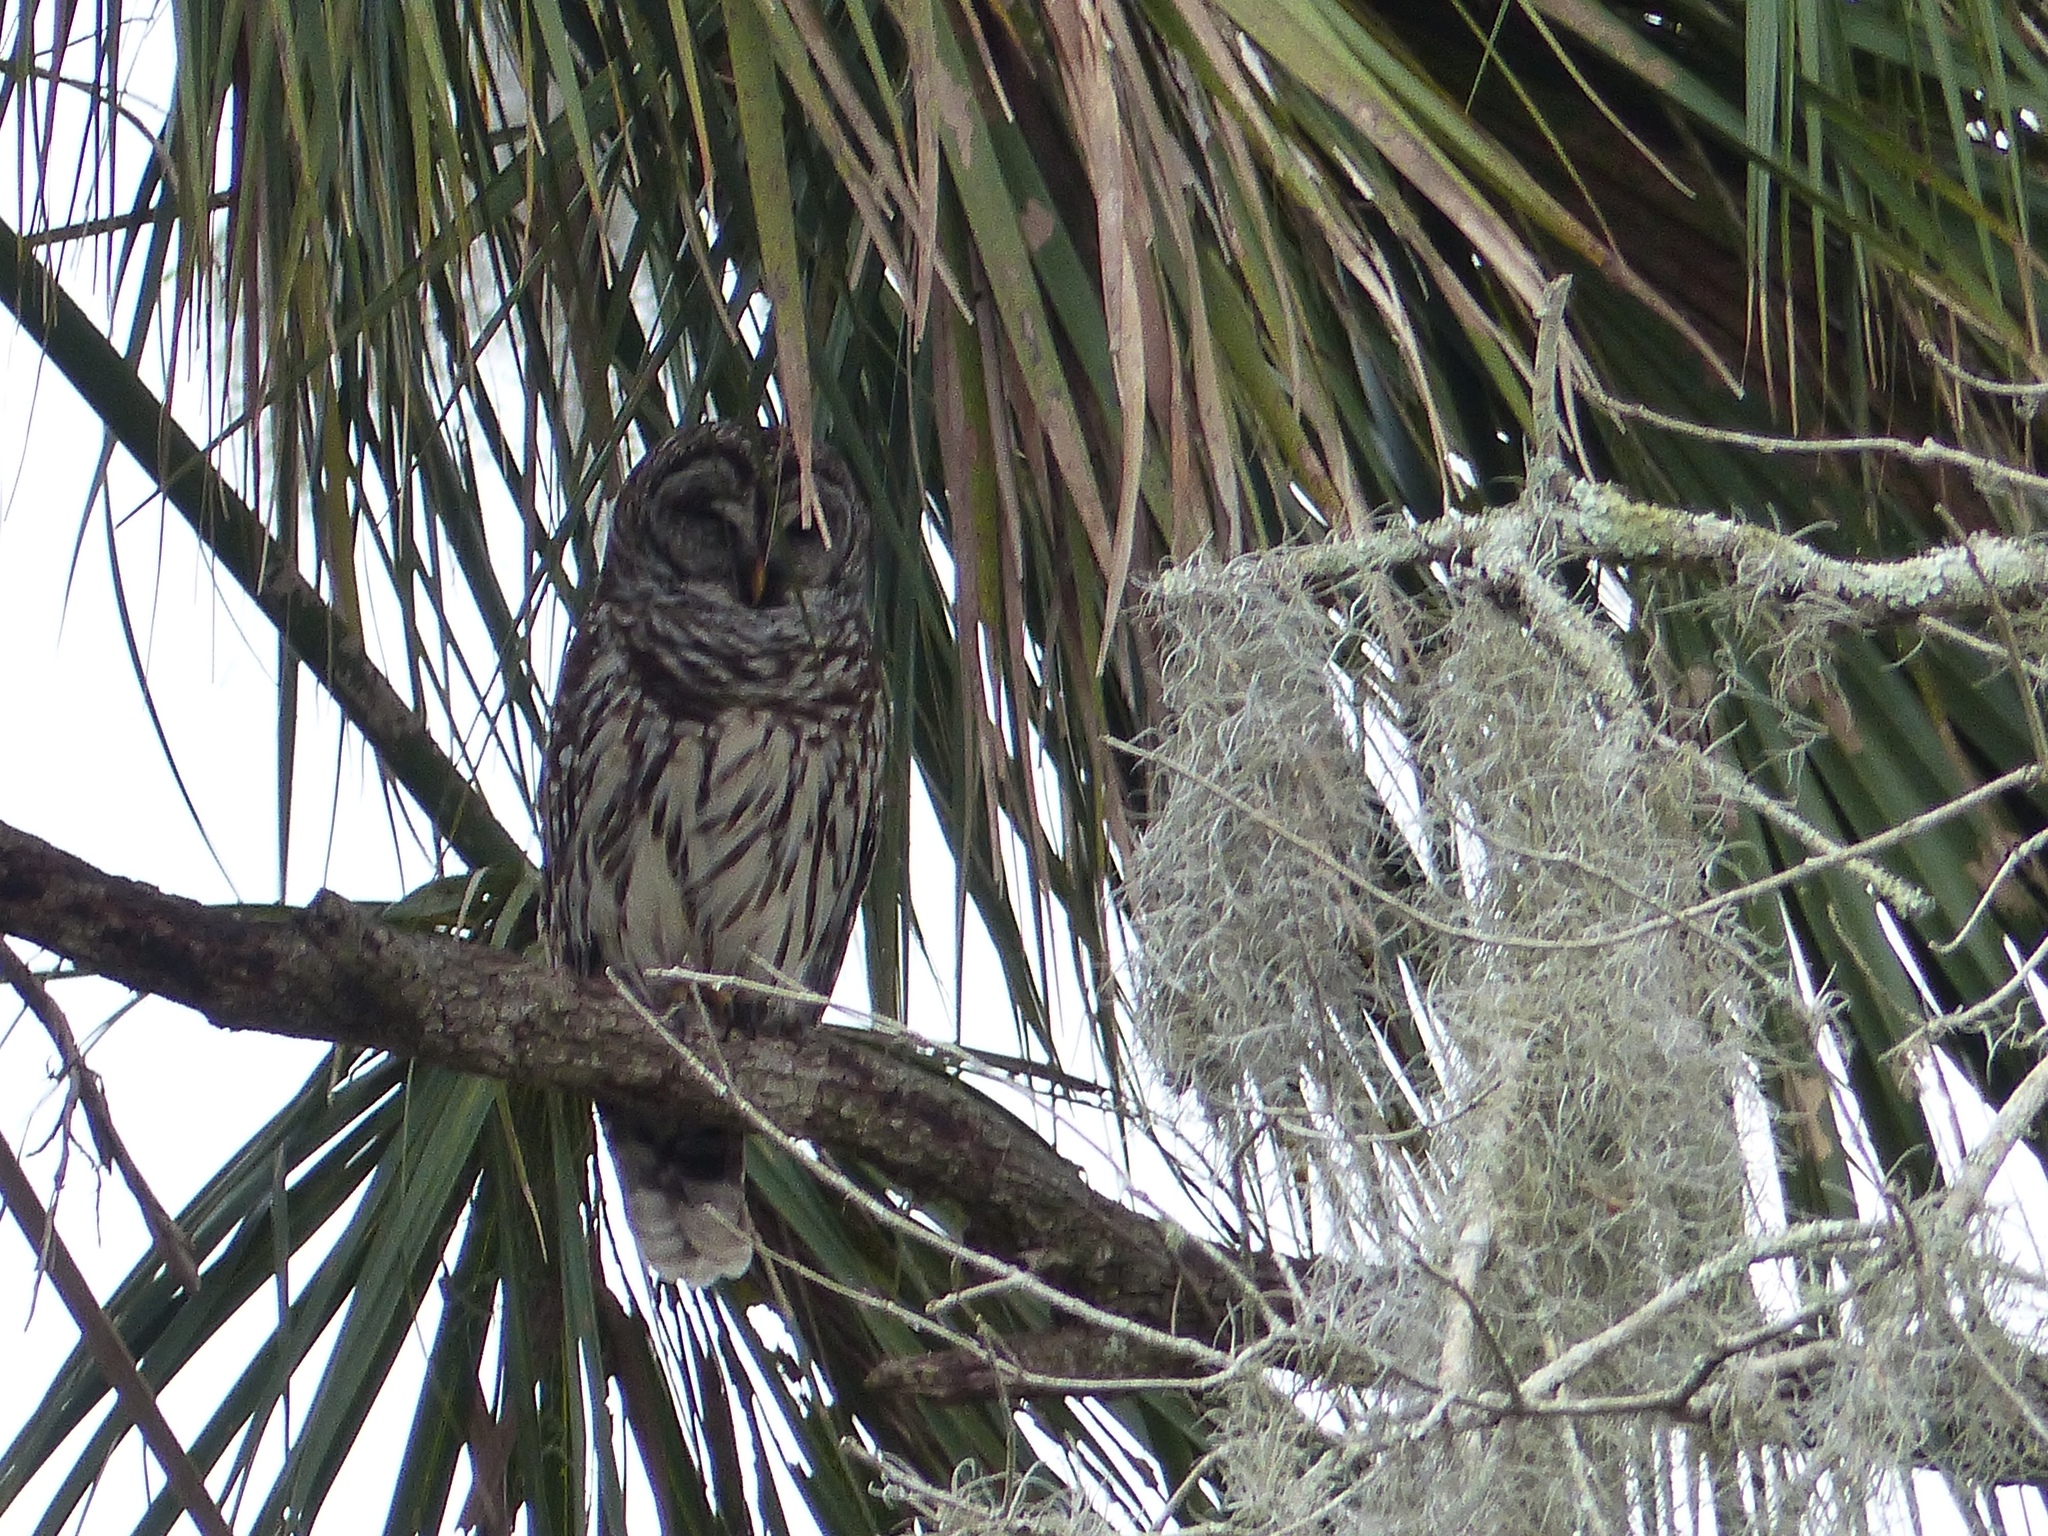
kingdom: Animalia
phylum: Chordata
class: Aves
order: Strigiformes
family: Strigidae
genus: Strix
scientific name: Strix varia
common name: Barred owl
